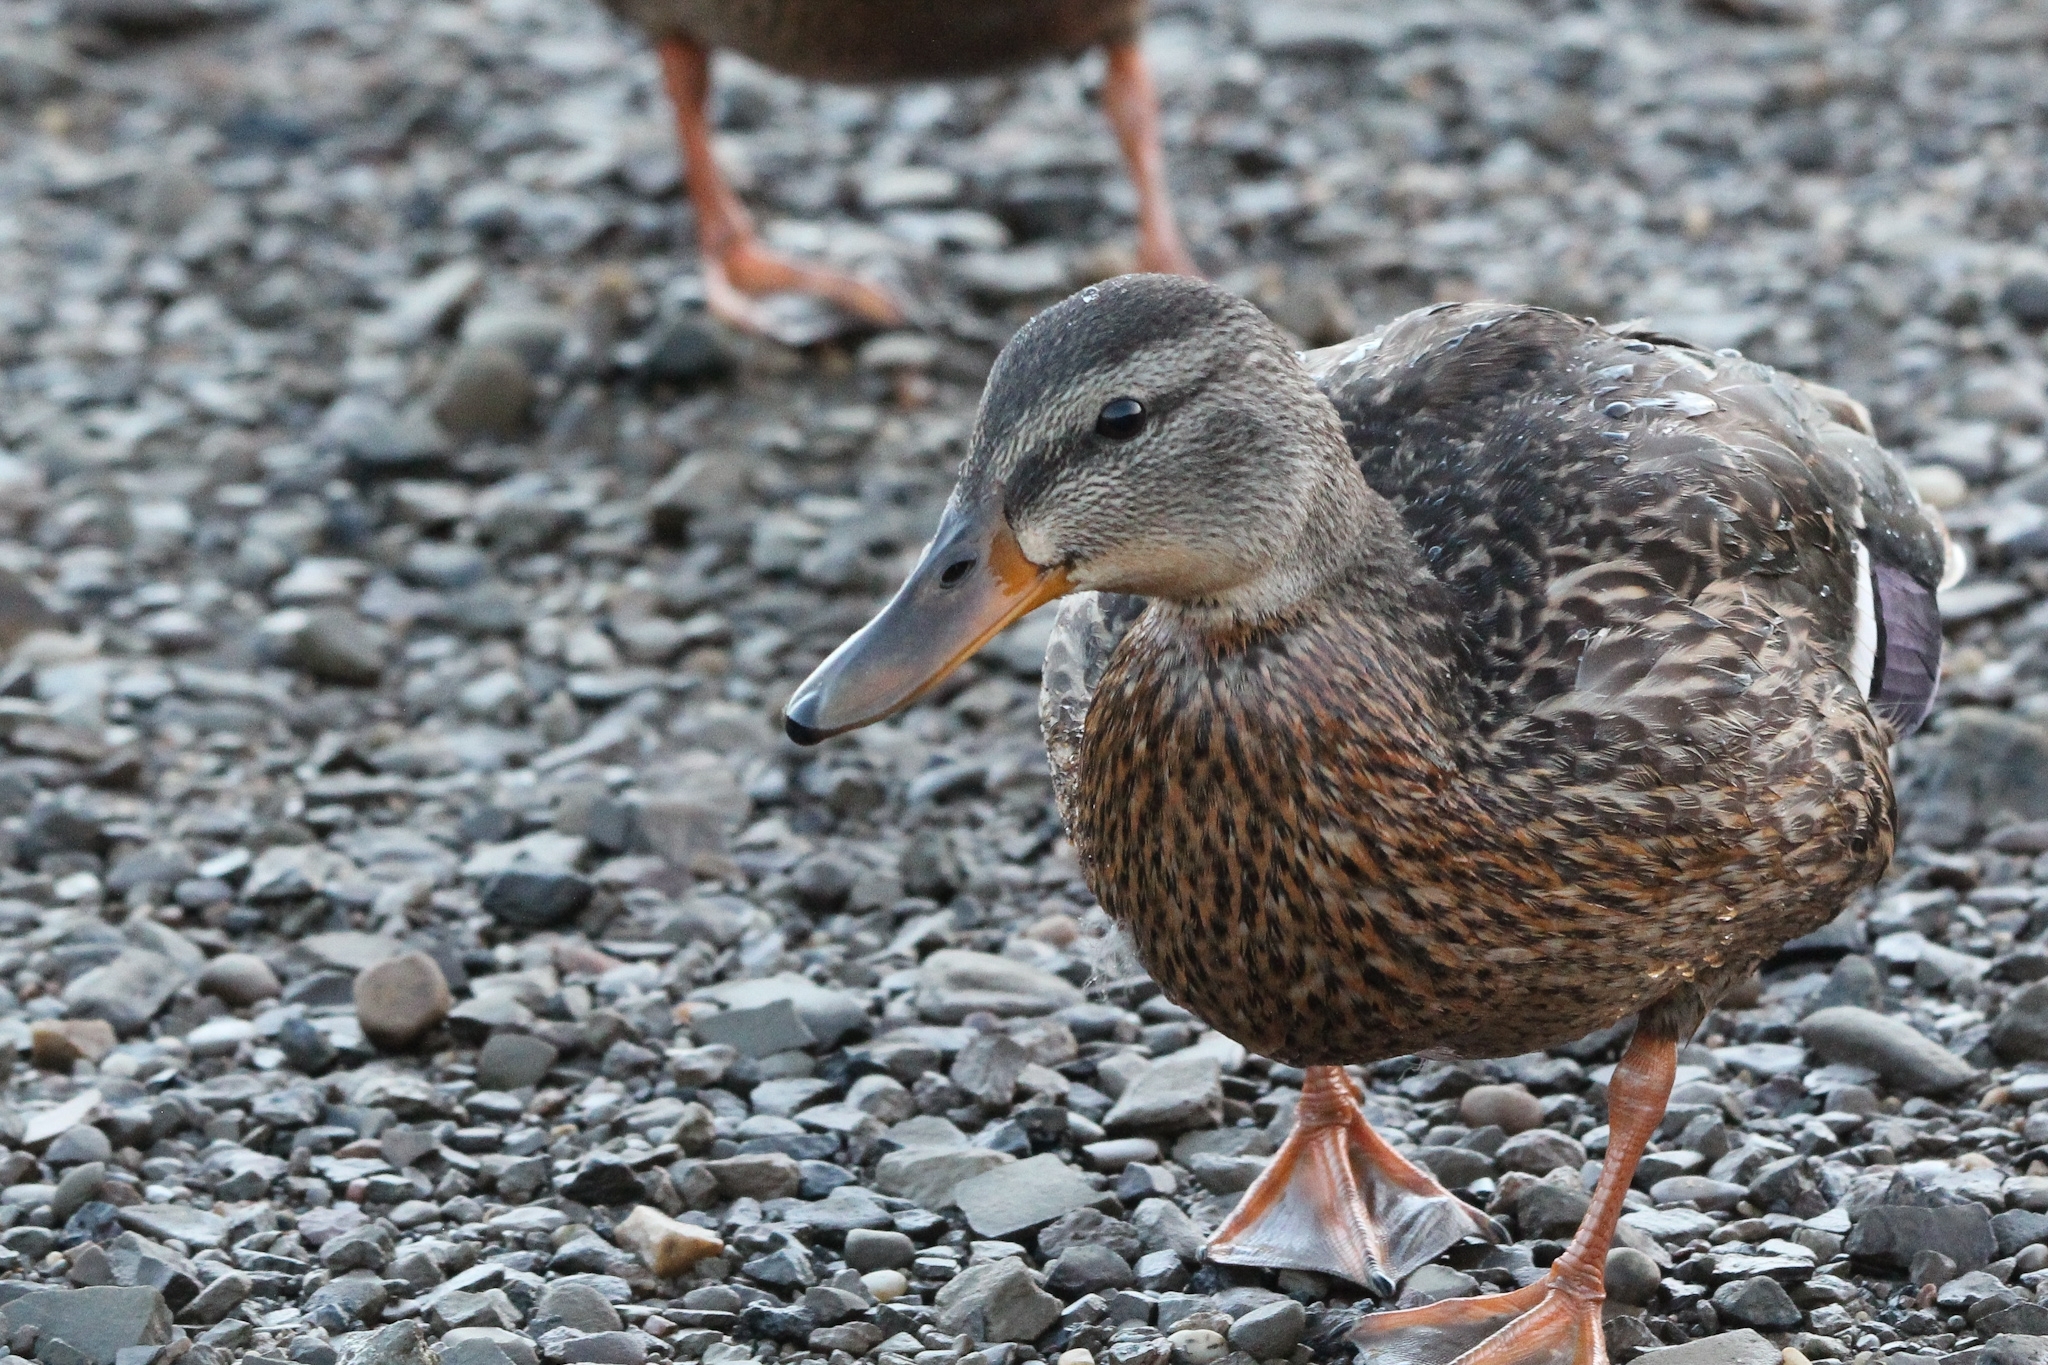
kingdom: Animalia
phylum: Chordata
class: Aves
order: Anseriformes
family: Anatidae
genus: Anas
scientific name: Anas platyrhynchos
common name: Mallard
